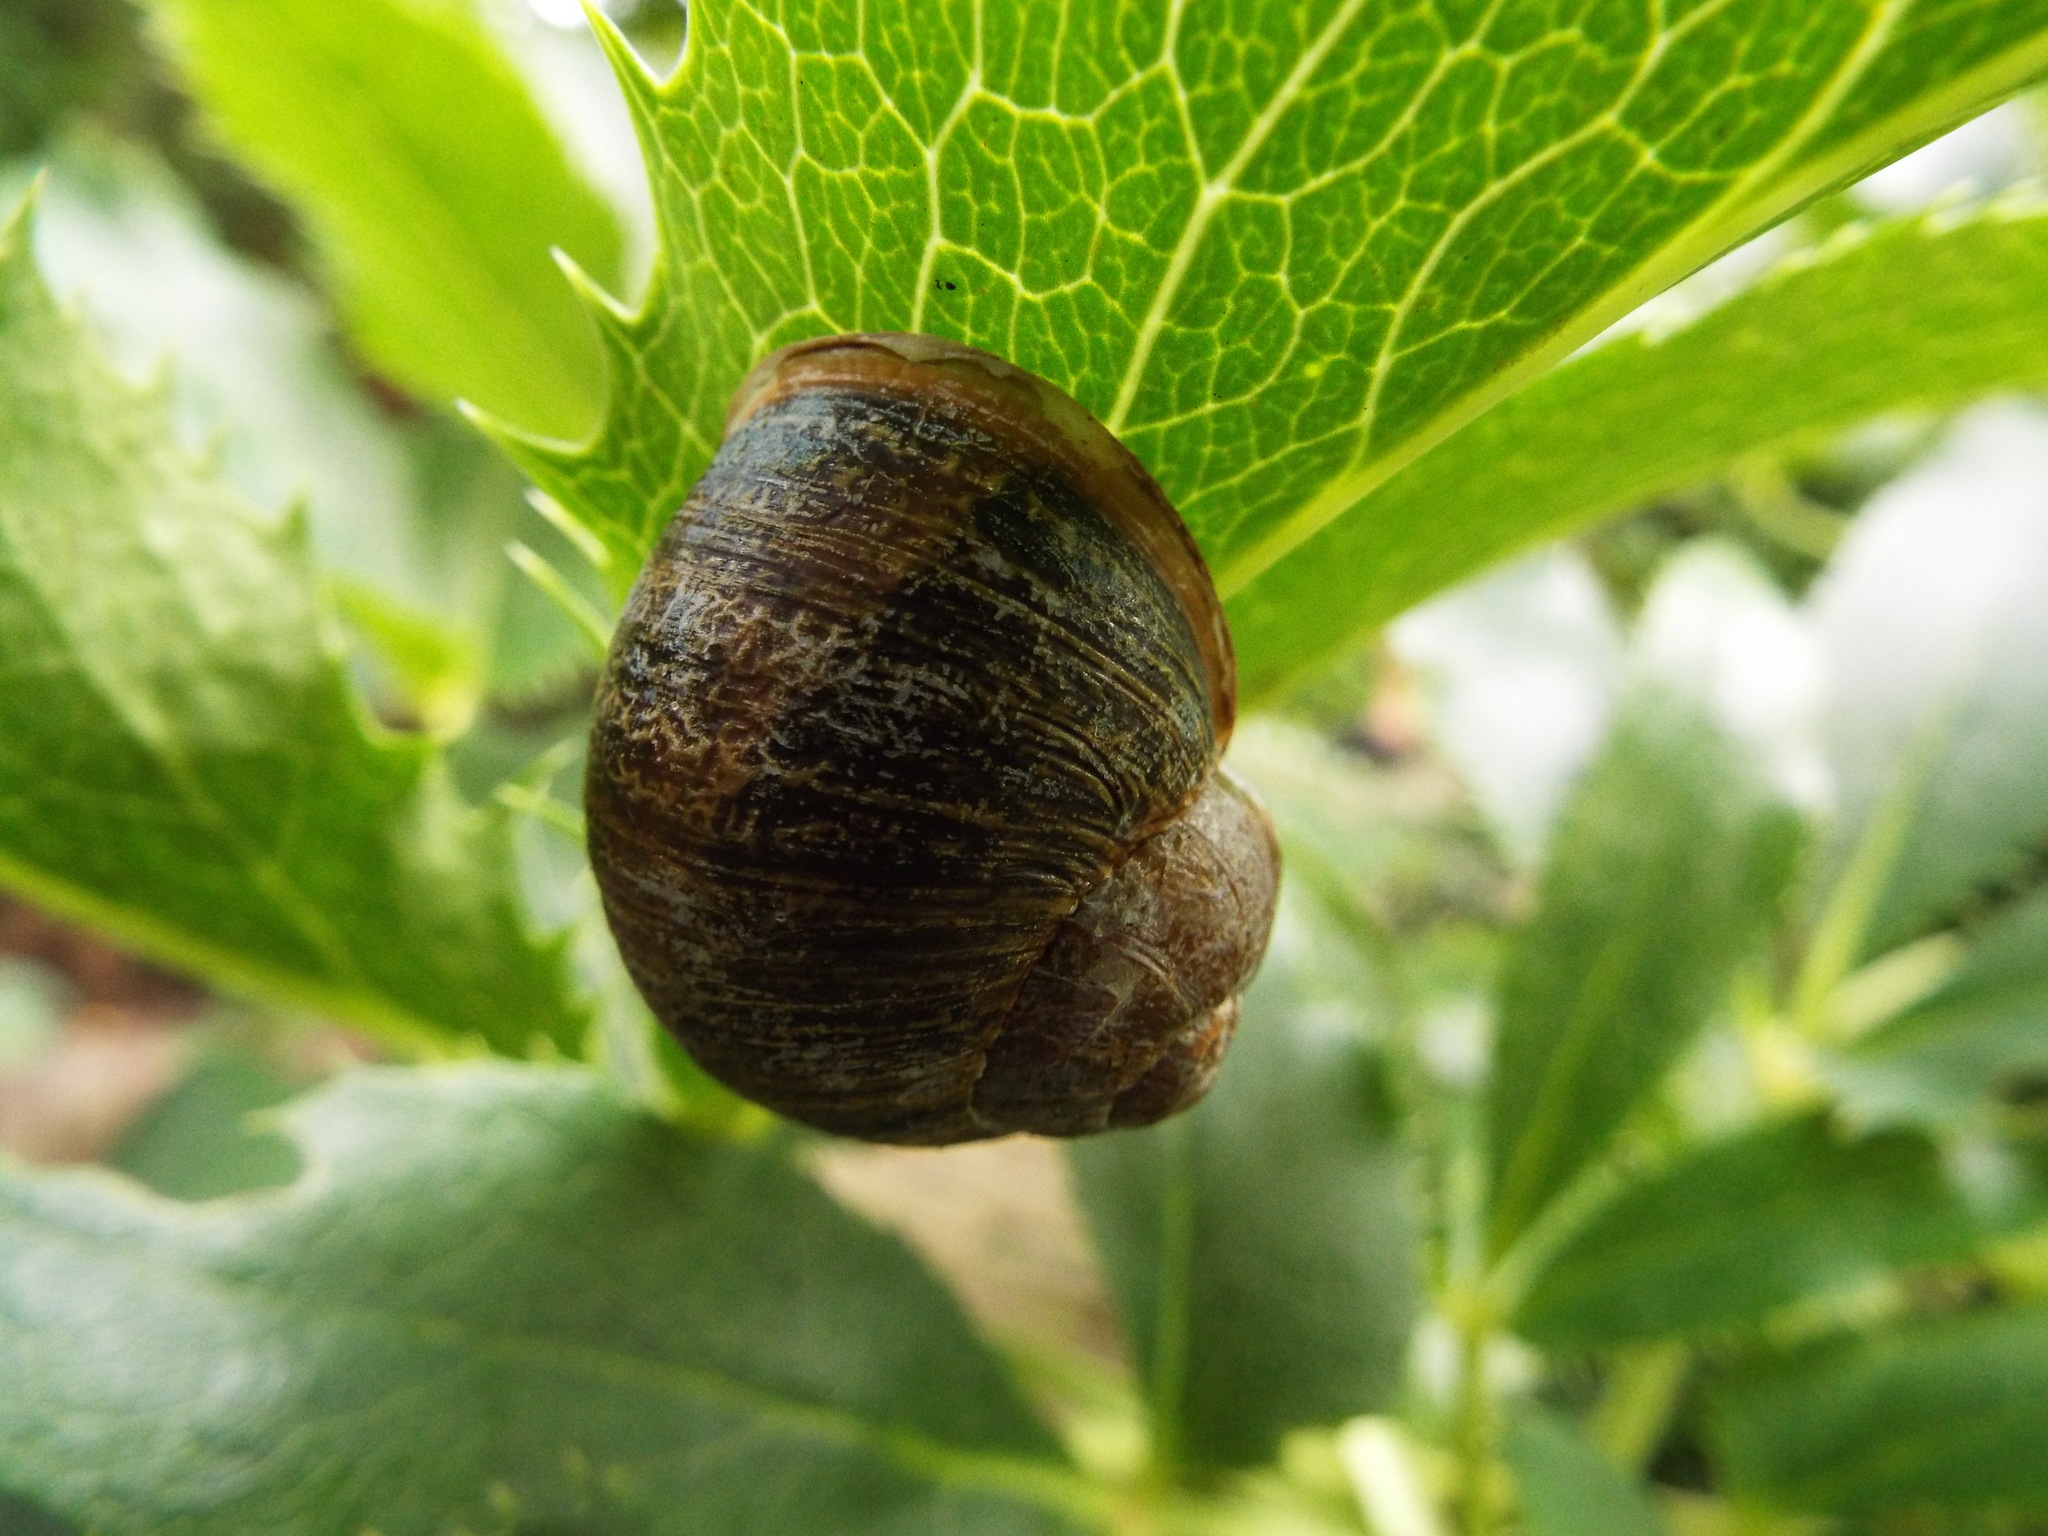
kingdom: Animalia
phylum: Mollusca
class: Gastropoda
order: Stylommatophora
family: Helicidae
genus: Cornu
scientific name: Cornu aspersum
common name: Brown garden snail
